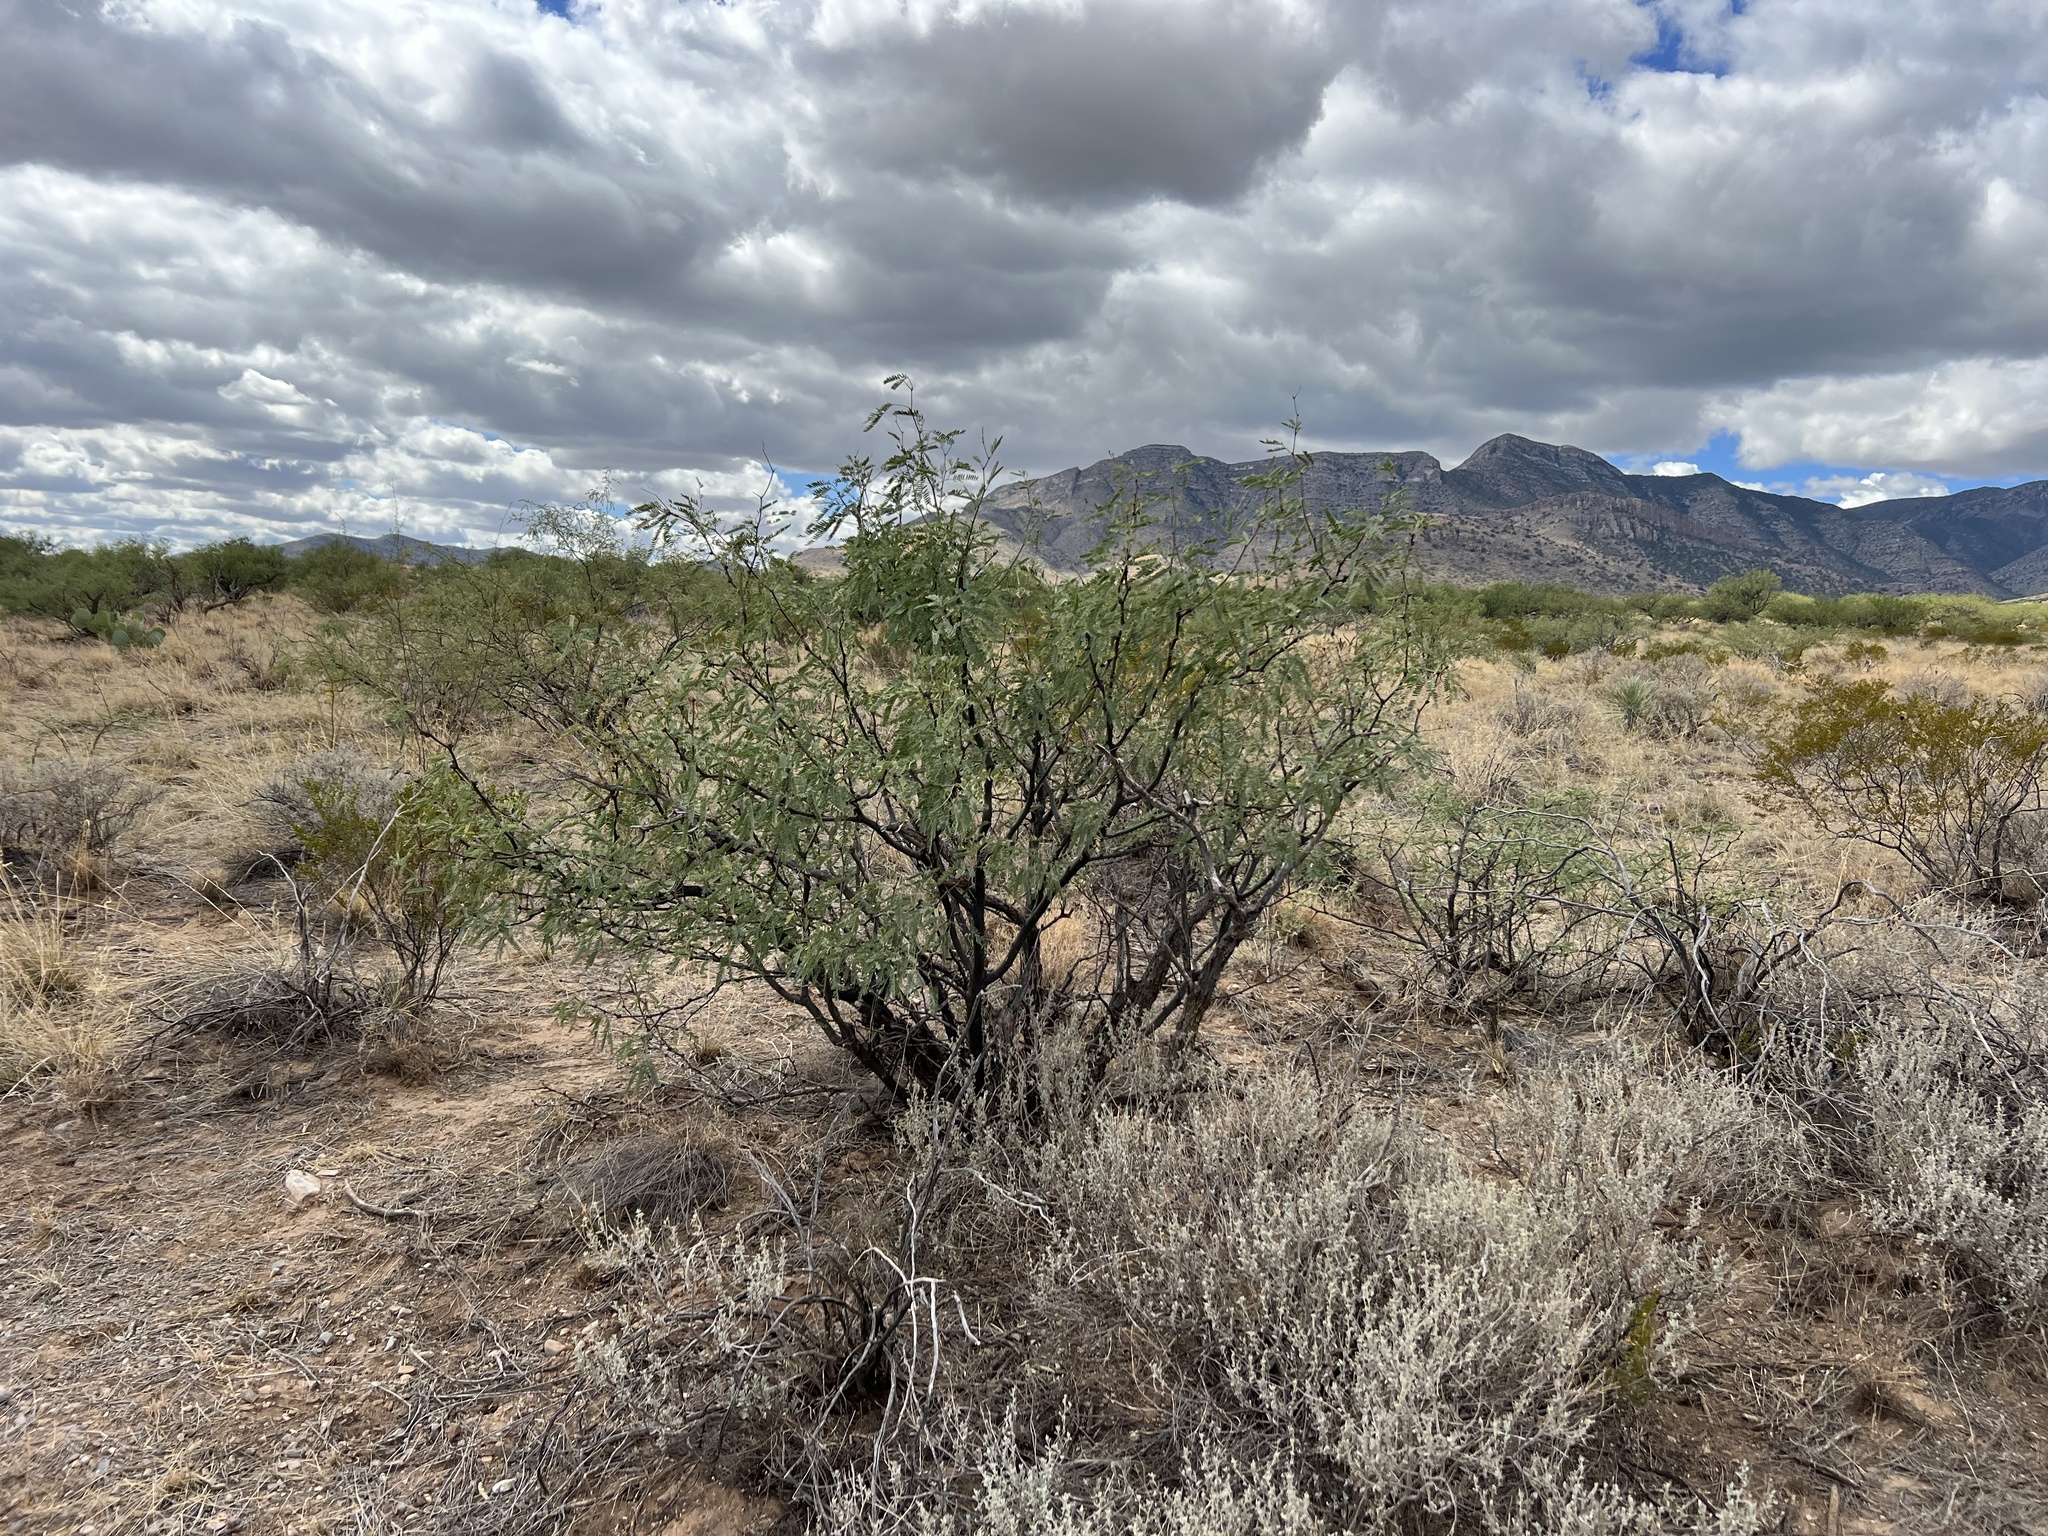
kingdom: Plantae
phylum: Tracheophyta
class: Magnoliopsida
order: Fabales
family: Fabaceae
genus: Prosopis
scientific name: Prosopis velutina
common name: Velvet mesquite
